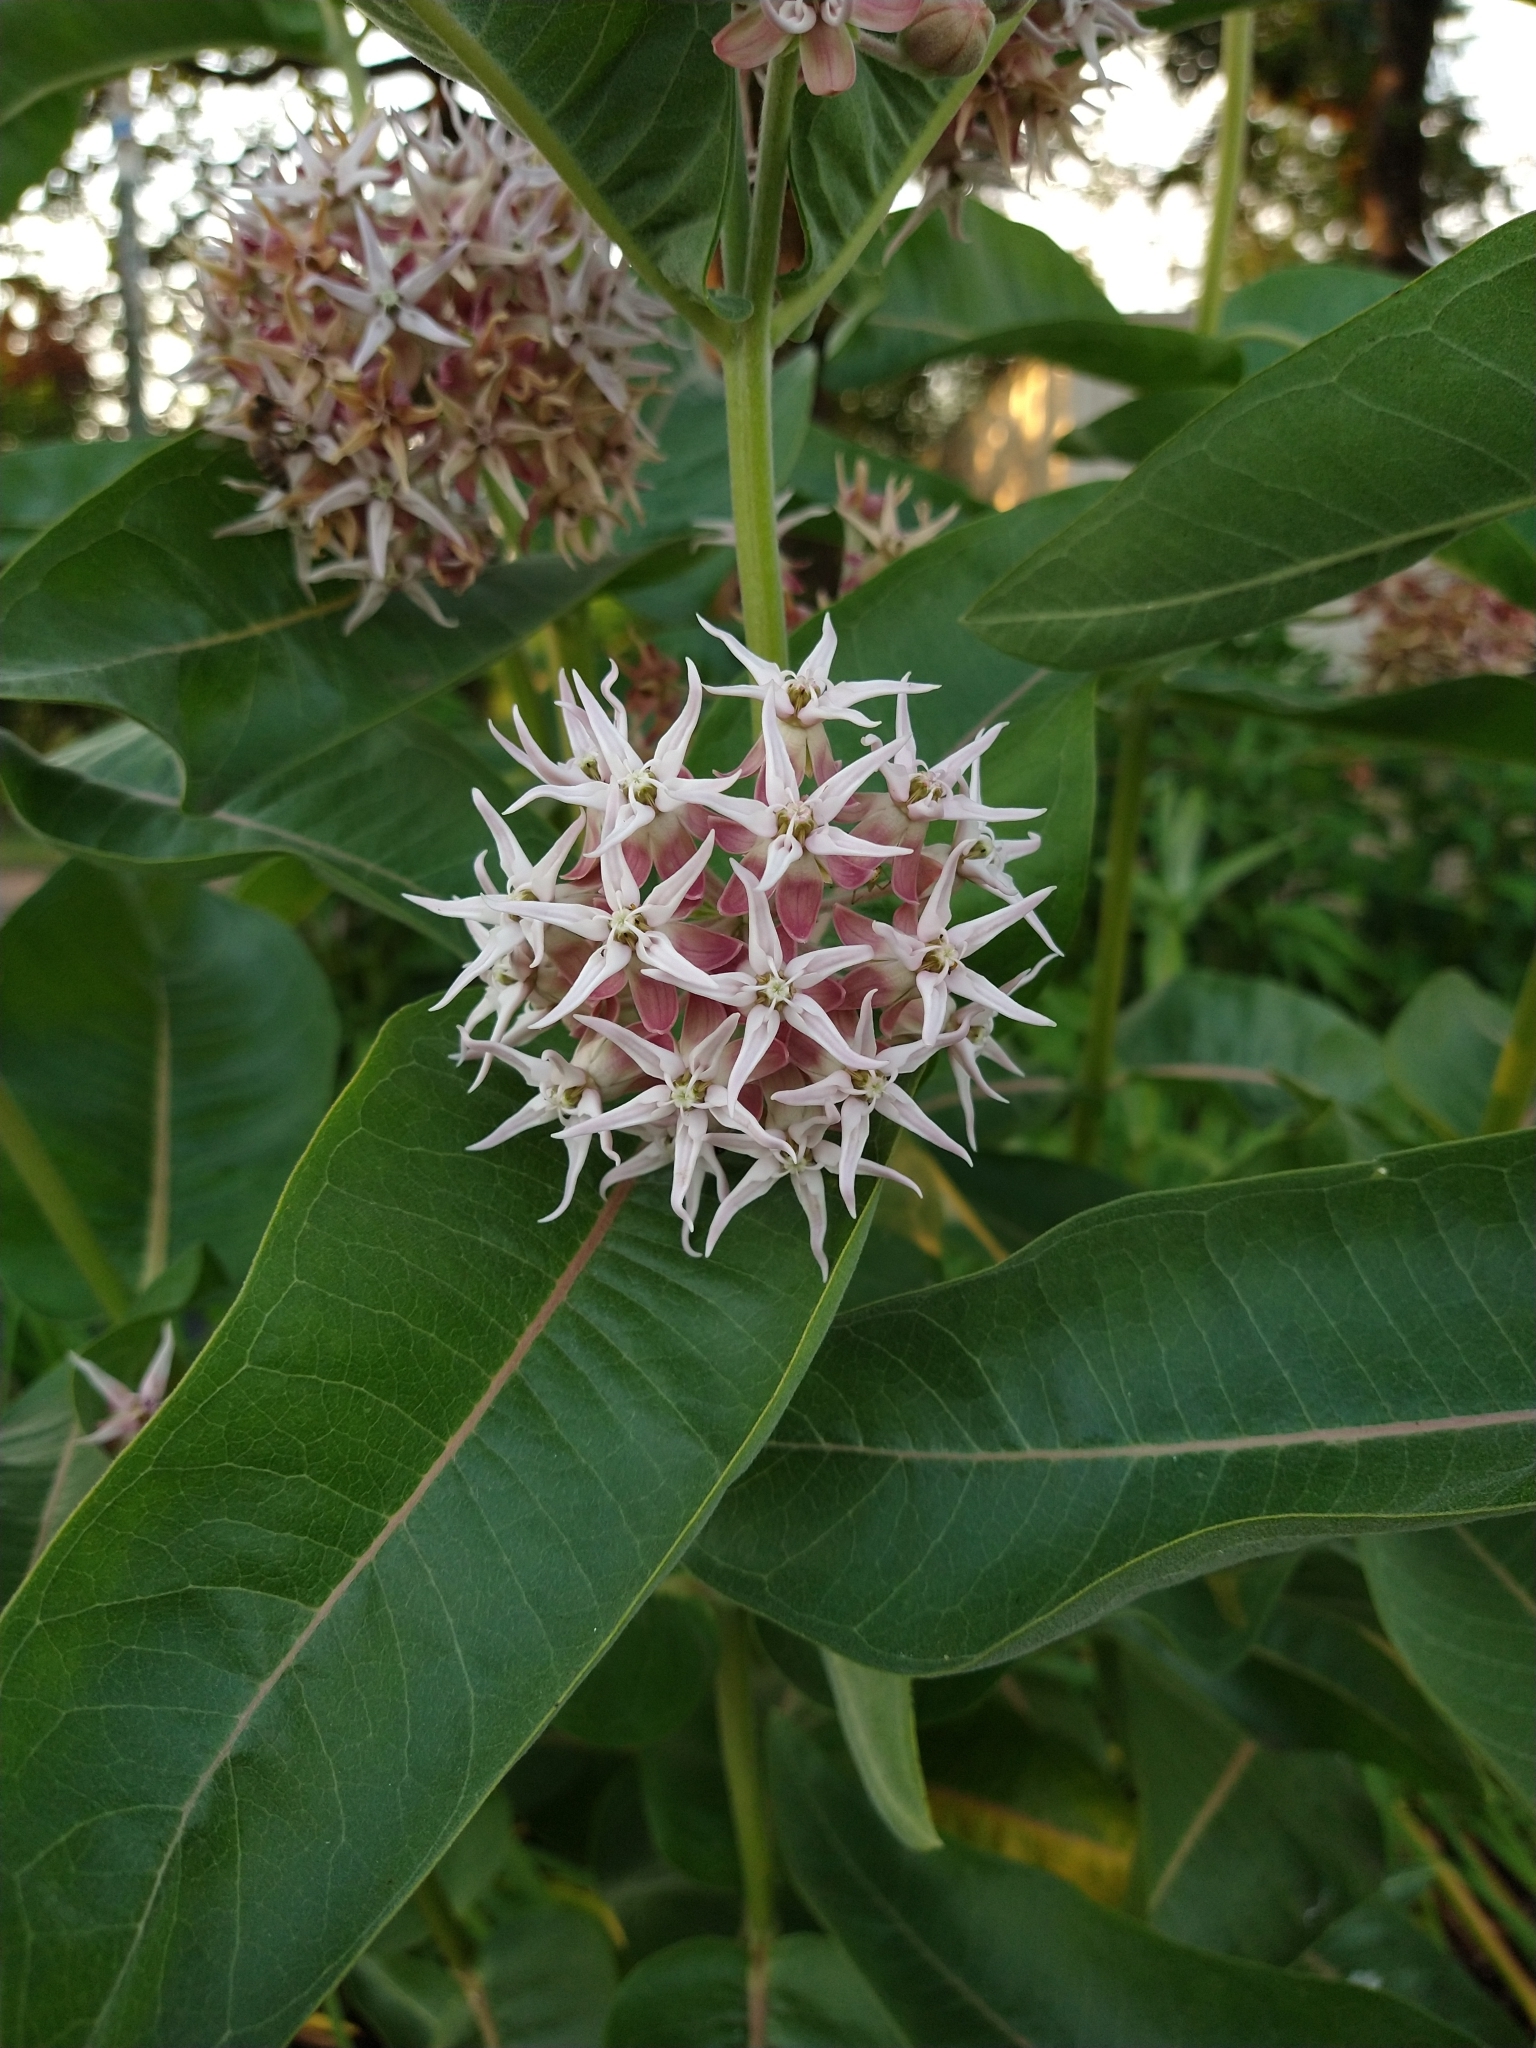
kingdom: Plantae
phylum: Tracheophyta
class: Magnoliopsida
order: Gentianales
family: Apocynaceae
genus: Asclepias
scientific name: Asclepias speciosa
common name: Showy milkweed
